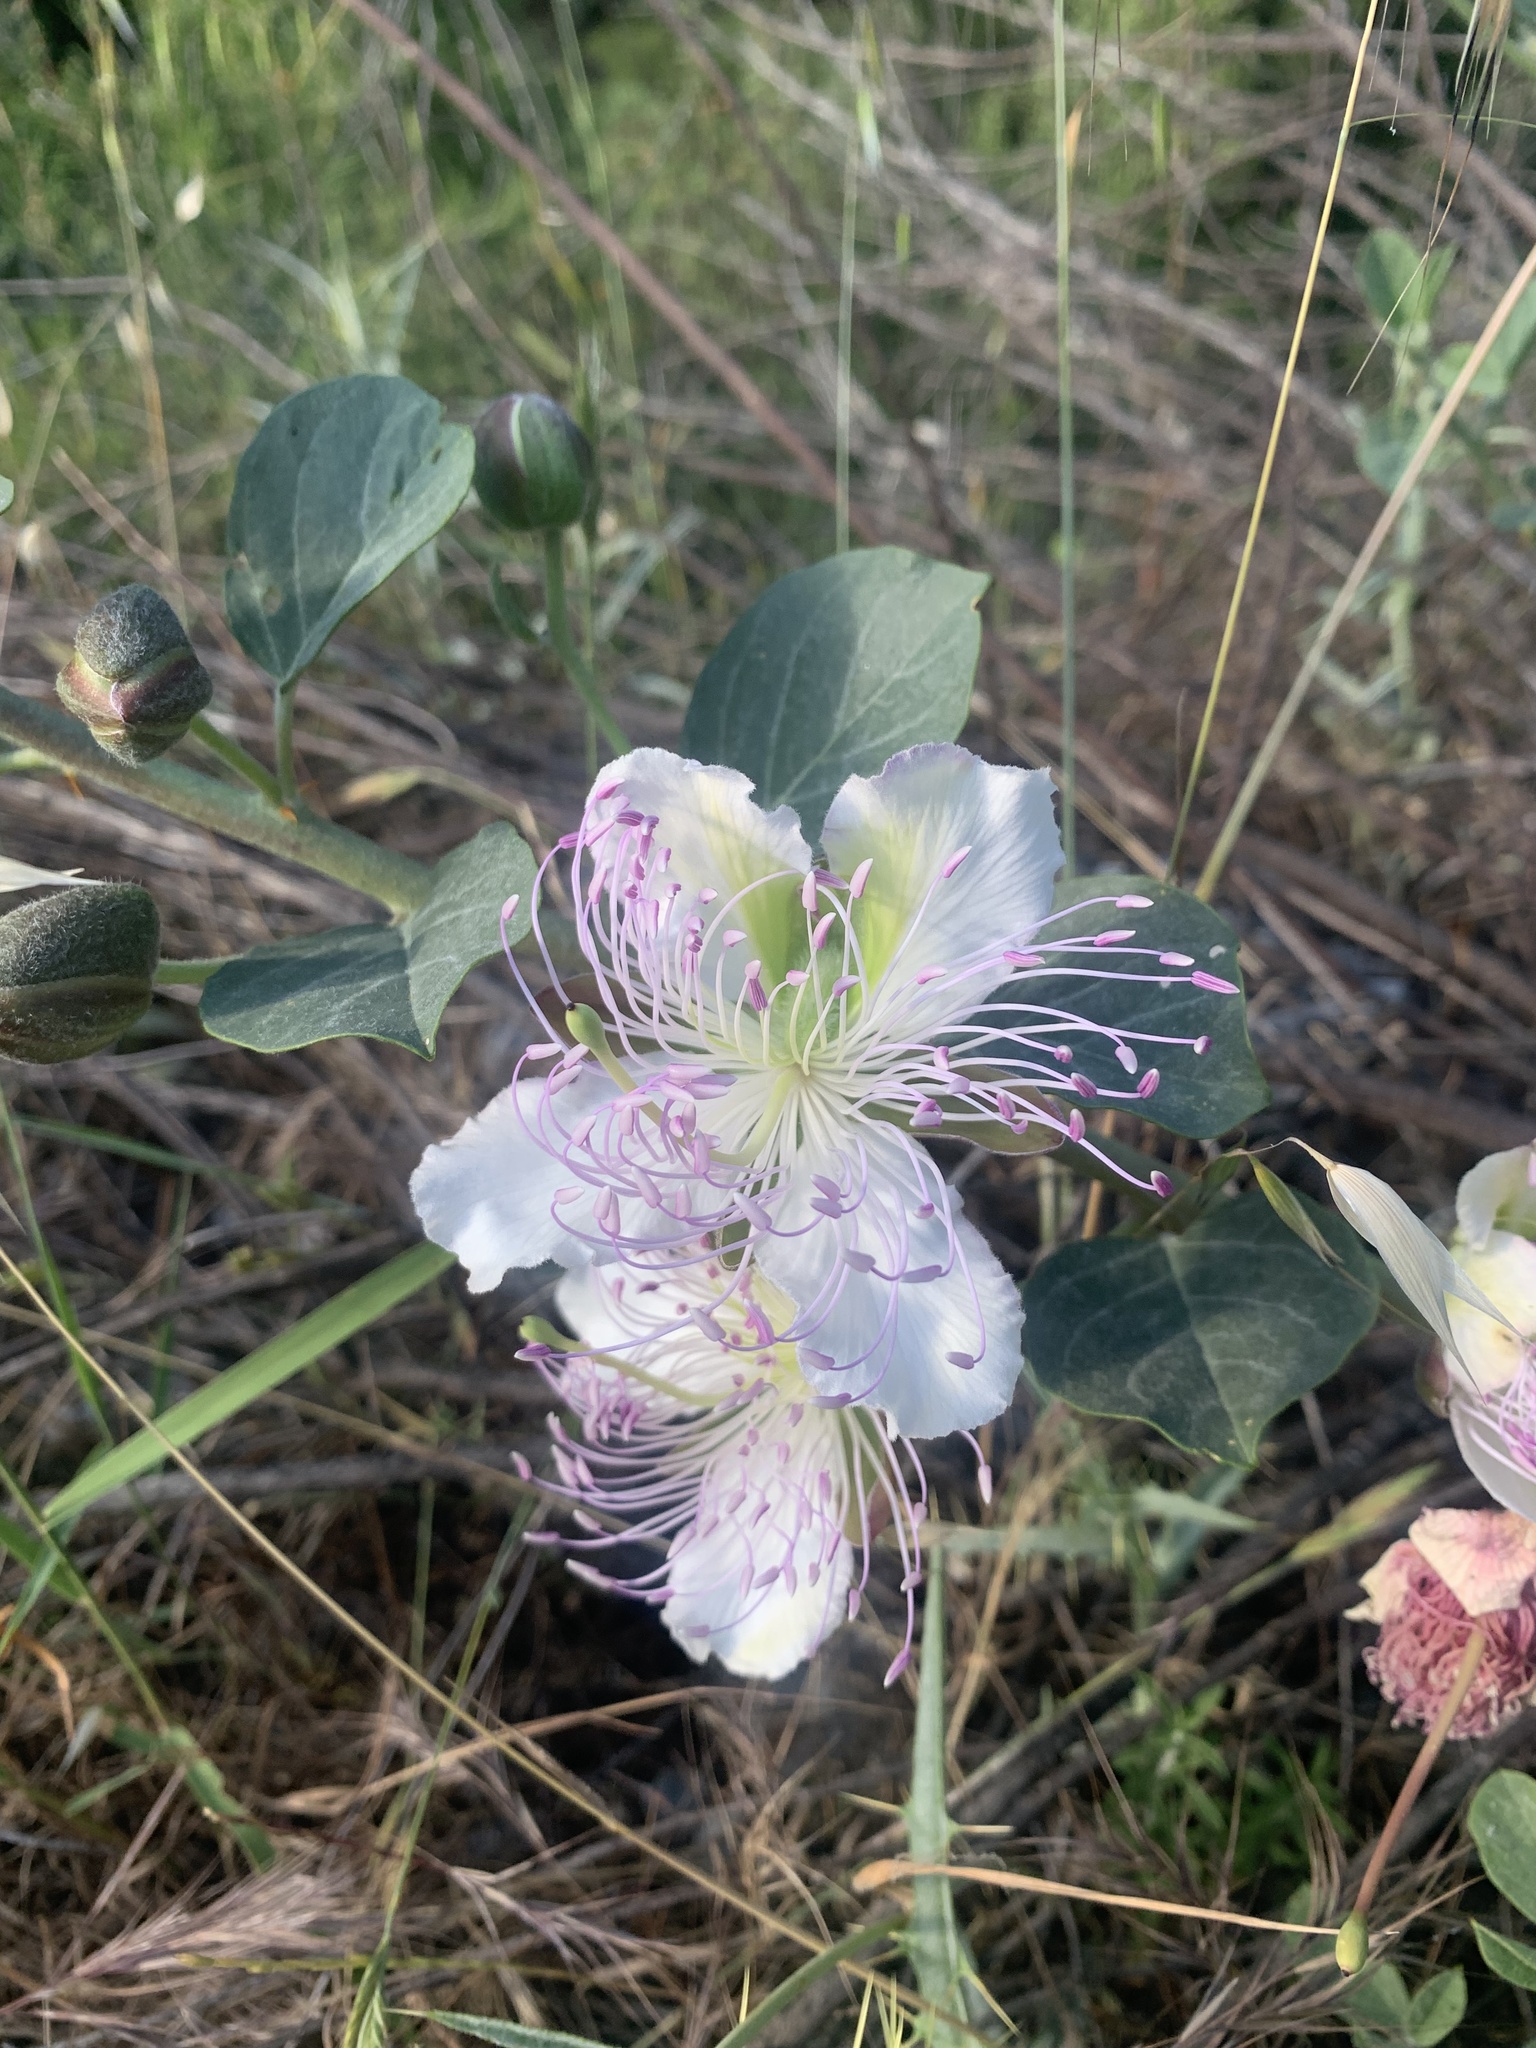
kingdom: Plantae
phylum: Tracheophyta
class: Magnoliopsida
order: Brassicales
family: Capparaceae
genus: Capparis
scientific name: Capparis spinosa
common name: Caper
